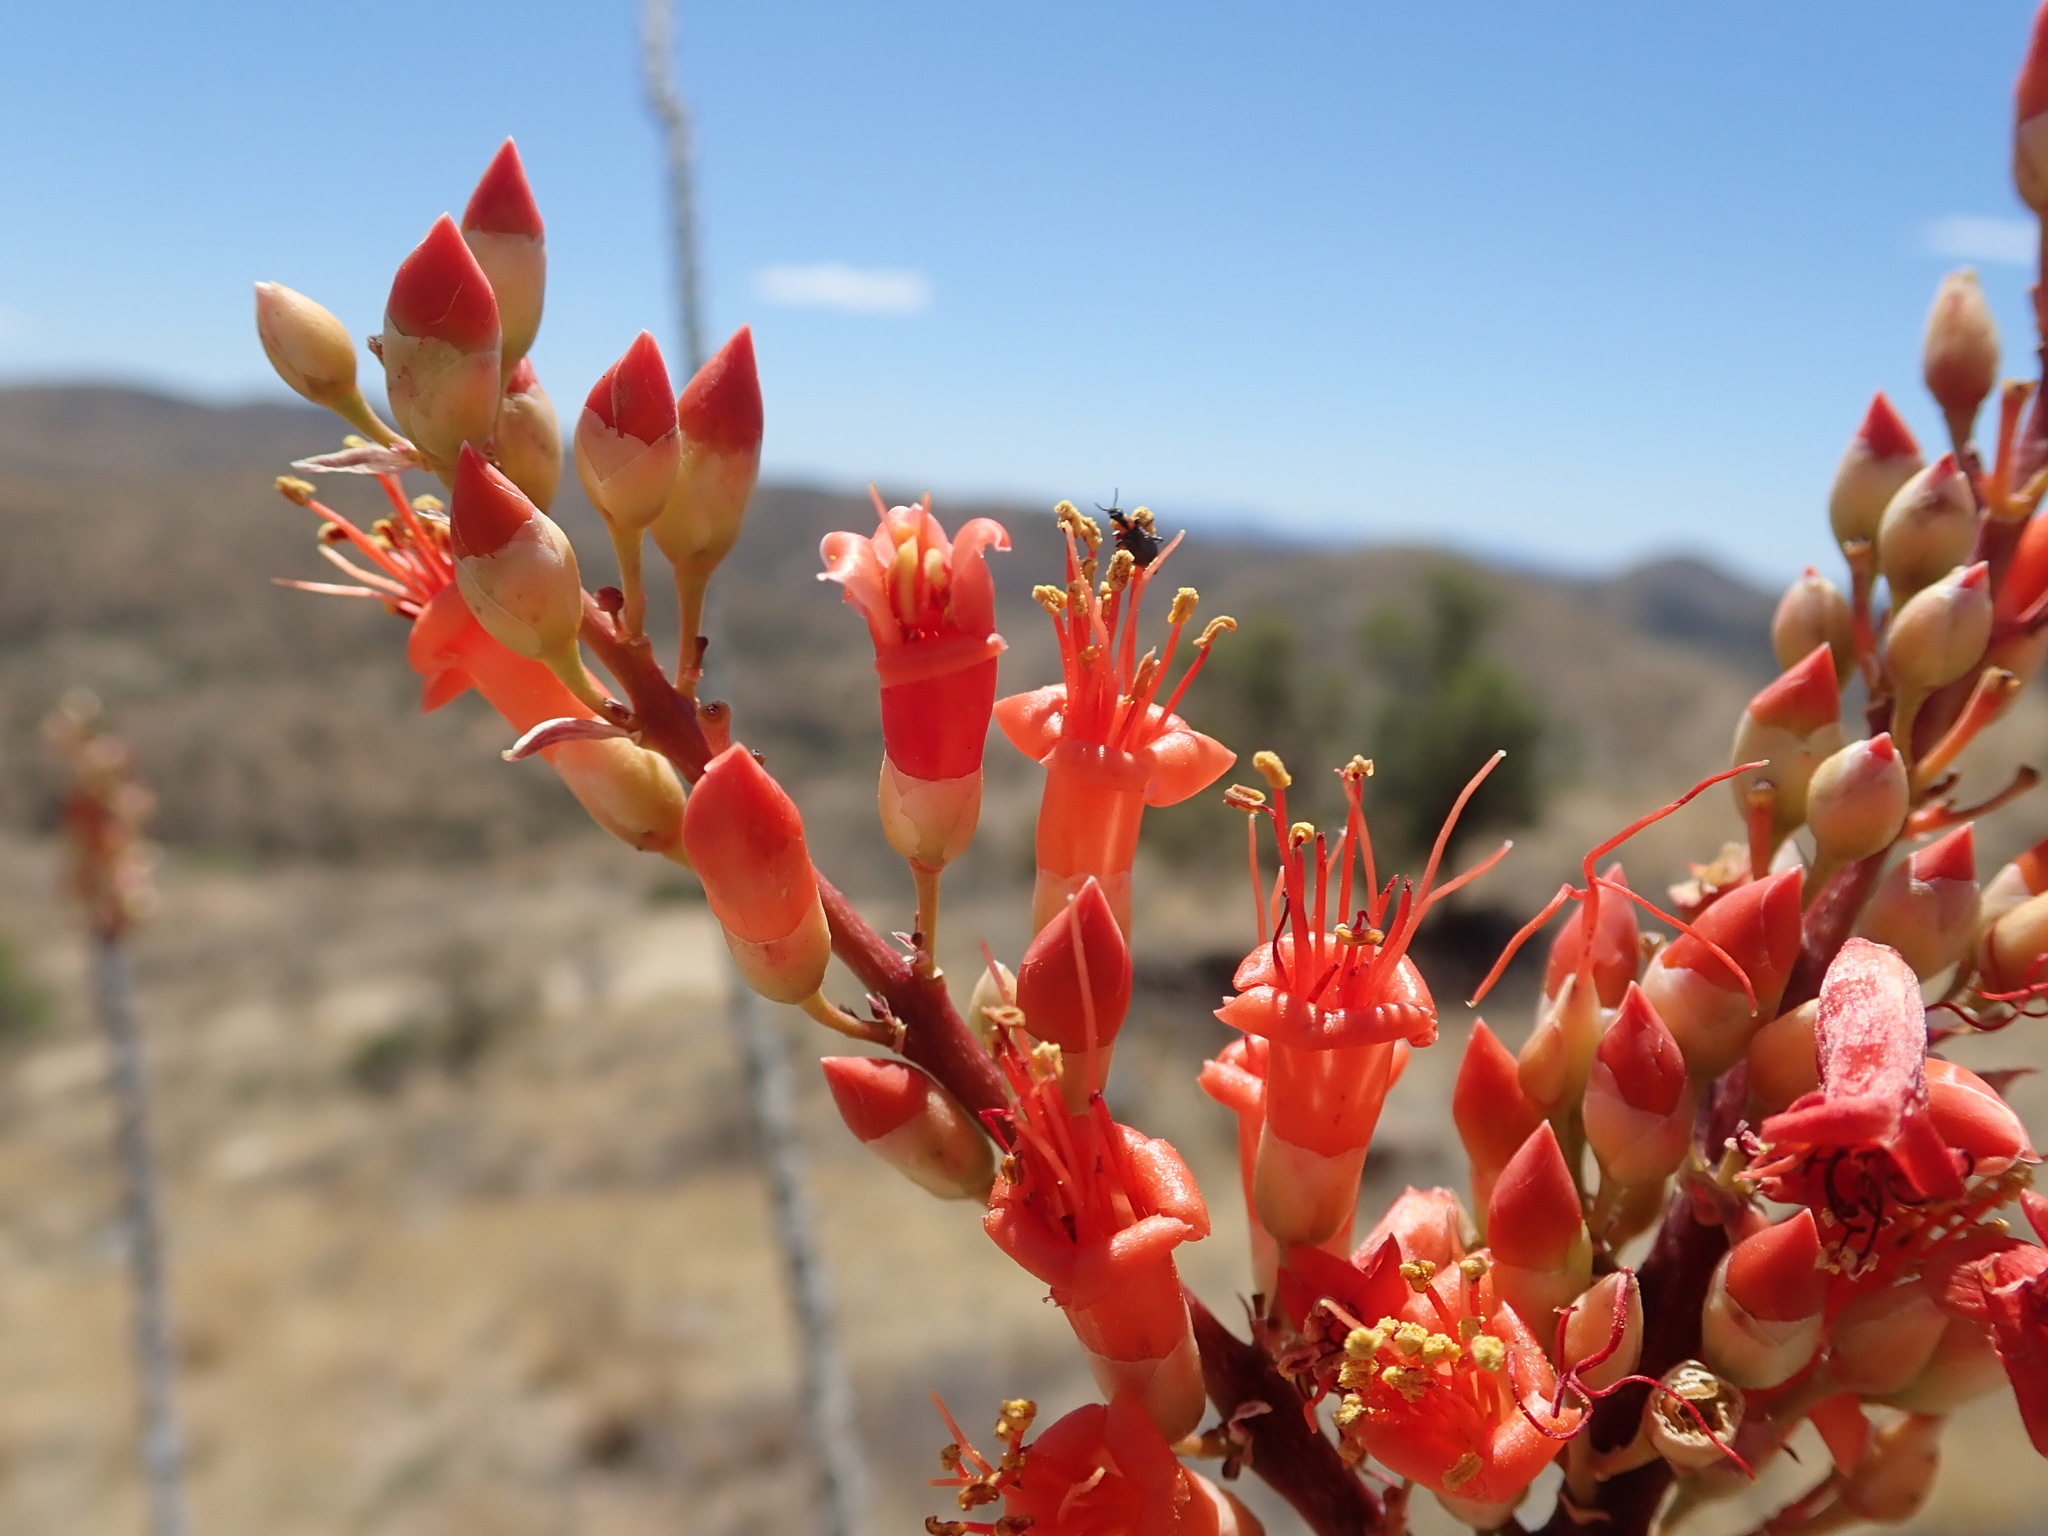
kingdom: Plantae
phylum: Tracheophyta
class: Magnoliopsida
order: Ericales
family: Fouquieriaceae
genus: Fouquieria
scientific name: Fouquieria splendens
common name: Vine-cactus
